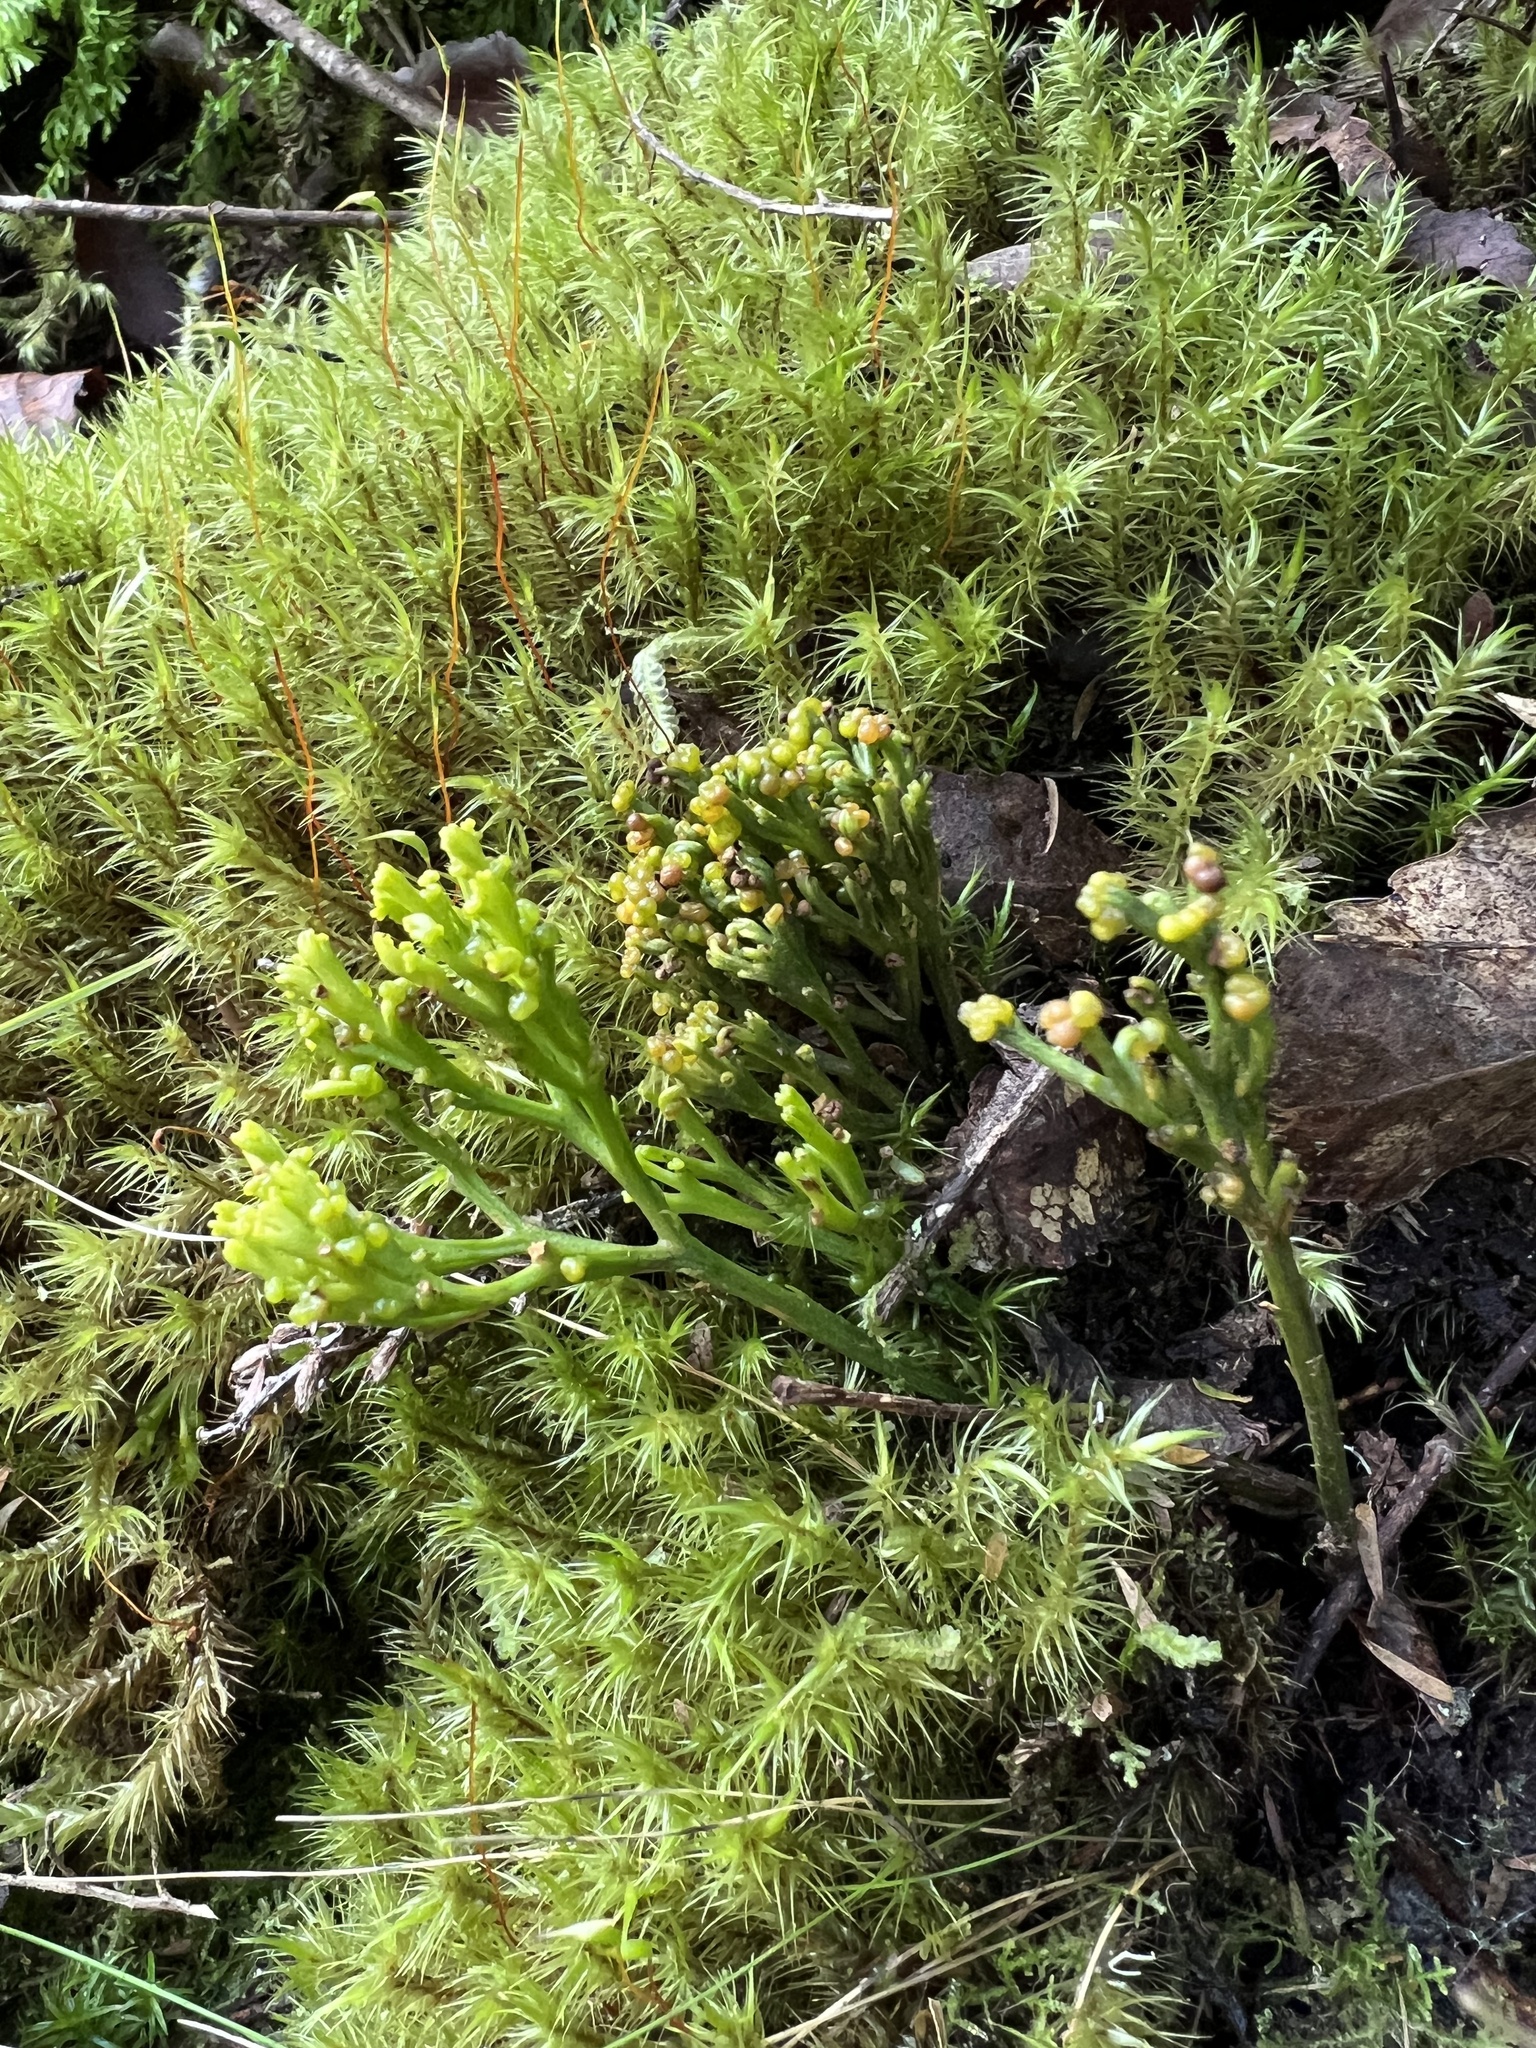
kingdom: Plantae
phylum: Tracheophyta
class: Polypodiopsida
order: Psilotales
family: Psilotaceae
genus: Psilotum
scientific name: Psilotum nudum
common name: Skeleton fork fern
